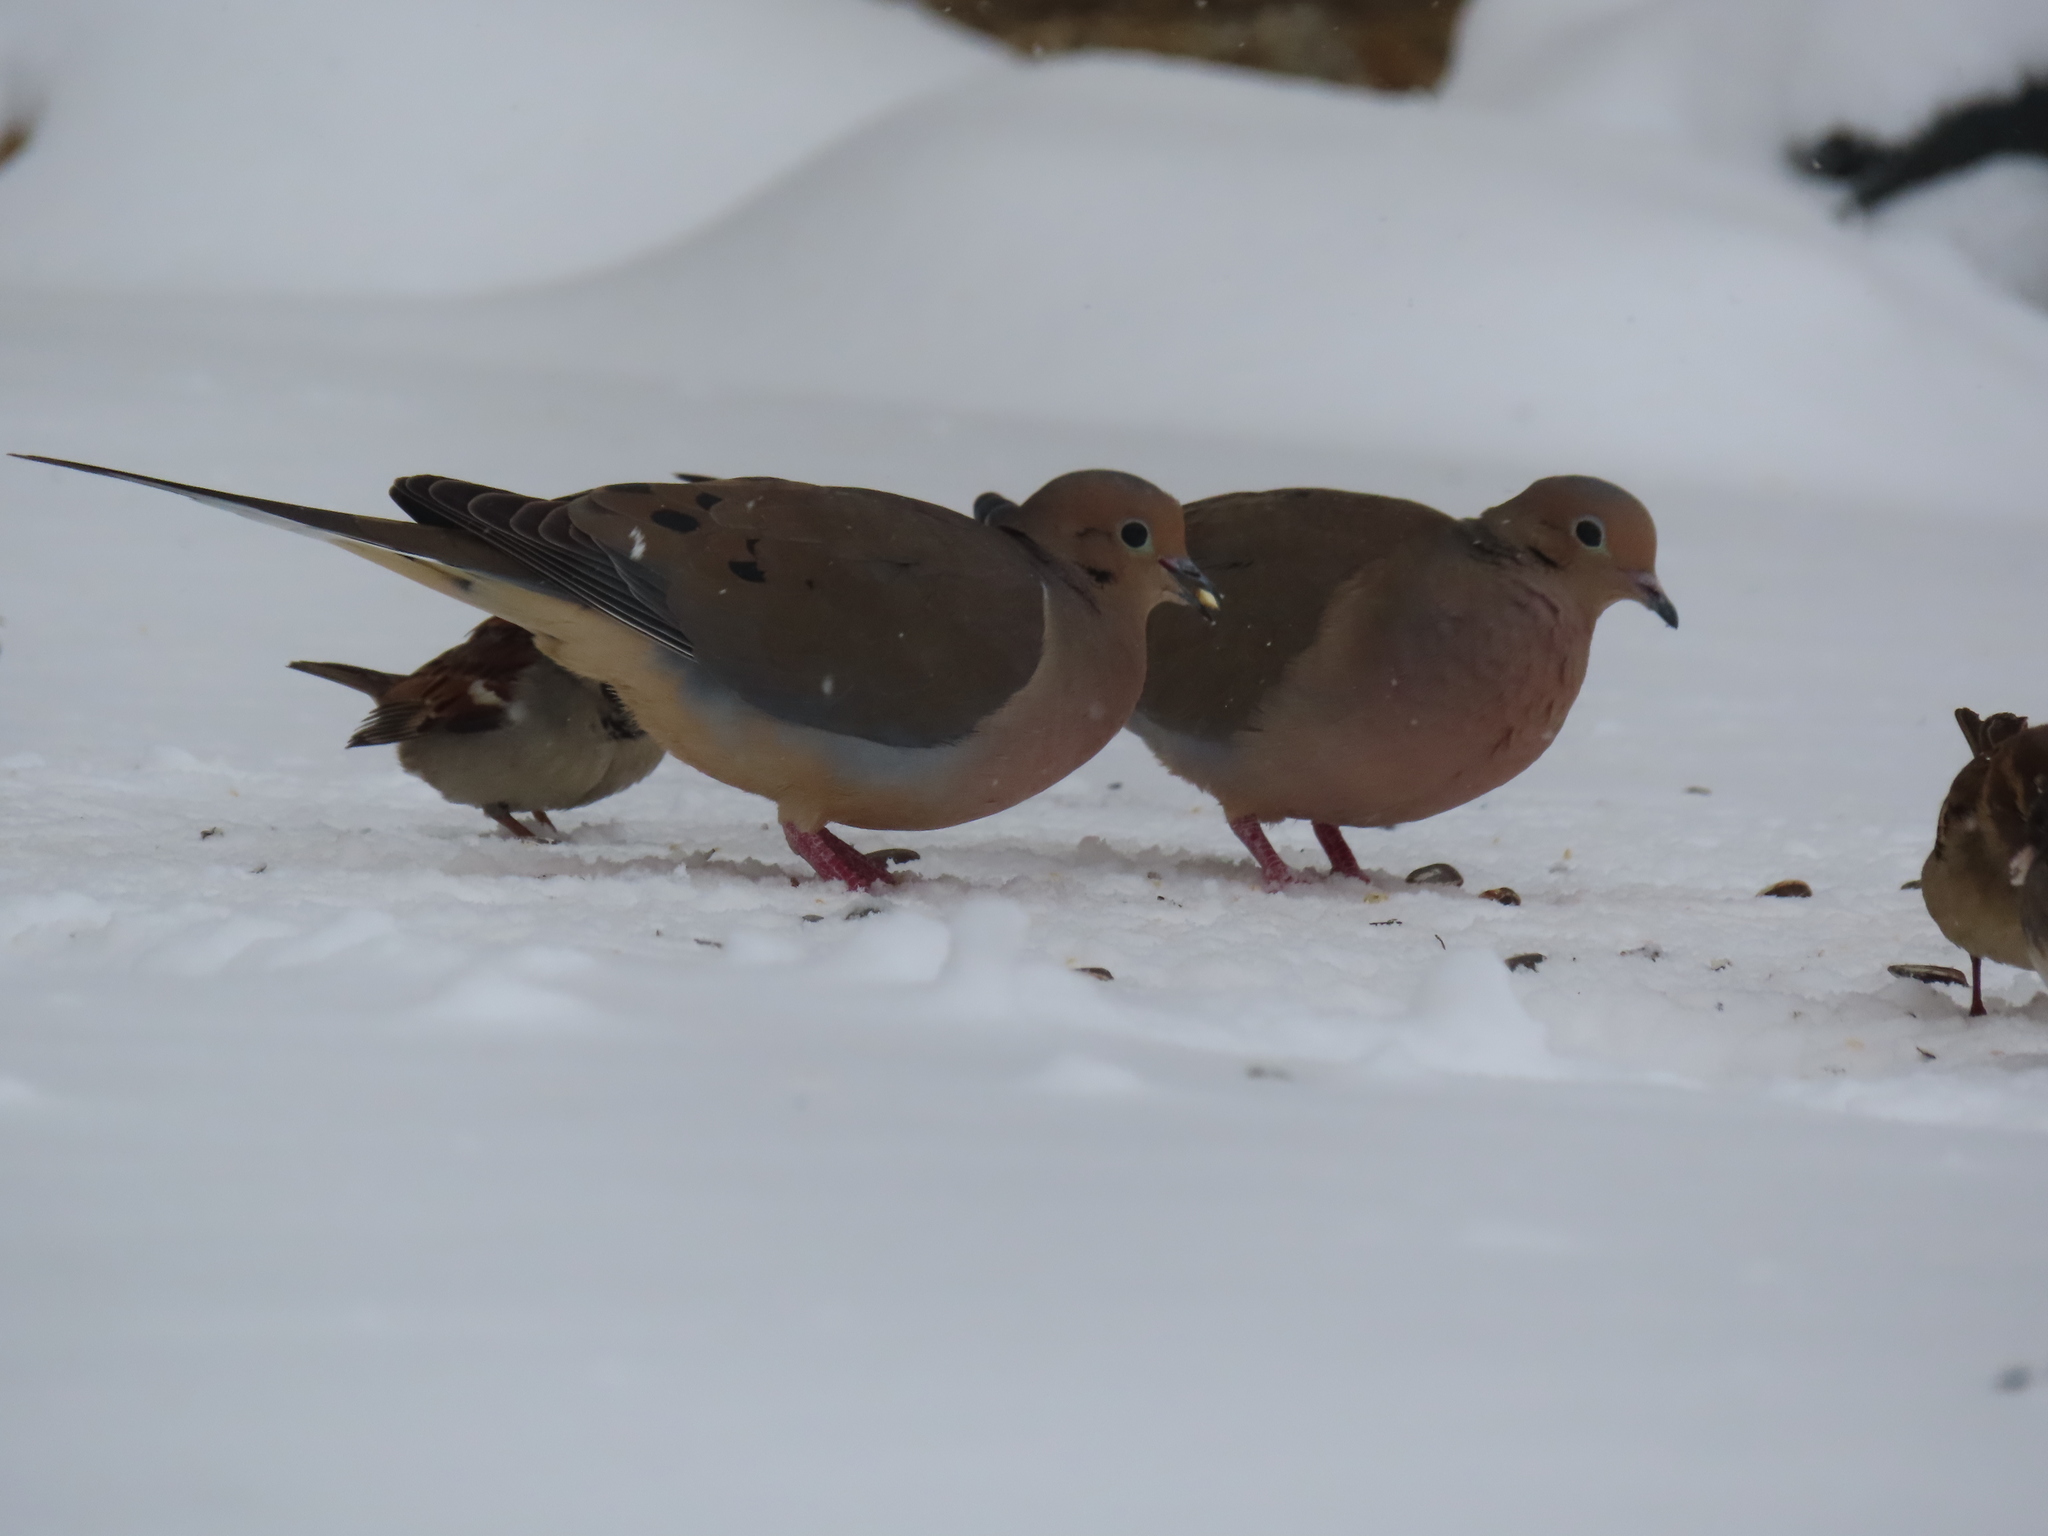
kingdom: Animalia
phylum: Chordata
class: Aves
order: Passeriformes
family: Passerellidae
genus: Junco
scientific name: Junco hyemalis
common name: Dark-eyed junco
